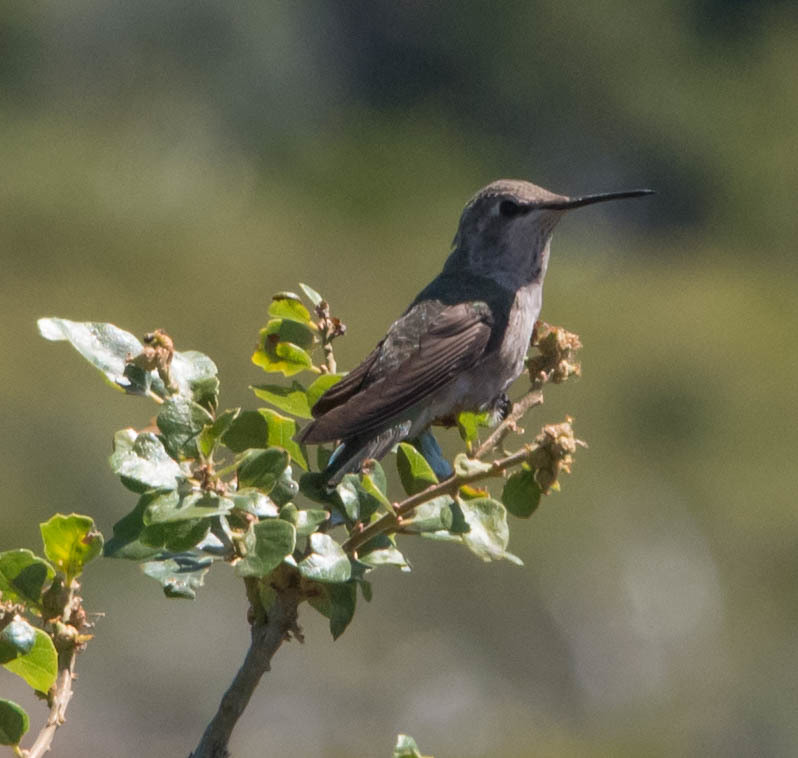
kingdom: Animalia
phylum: Chordata
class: Aves
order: Apodiformes
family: Trochilidae
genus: Calypte
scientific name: Calypte anna
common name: Anna's hummingbird
